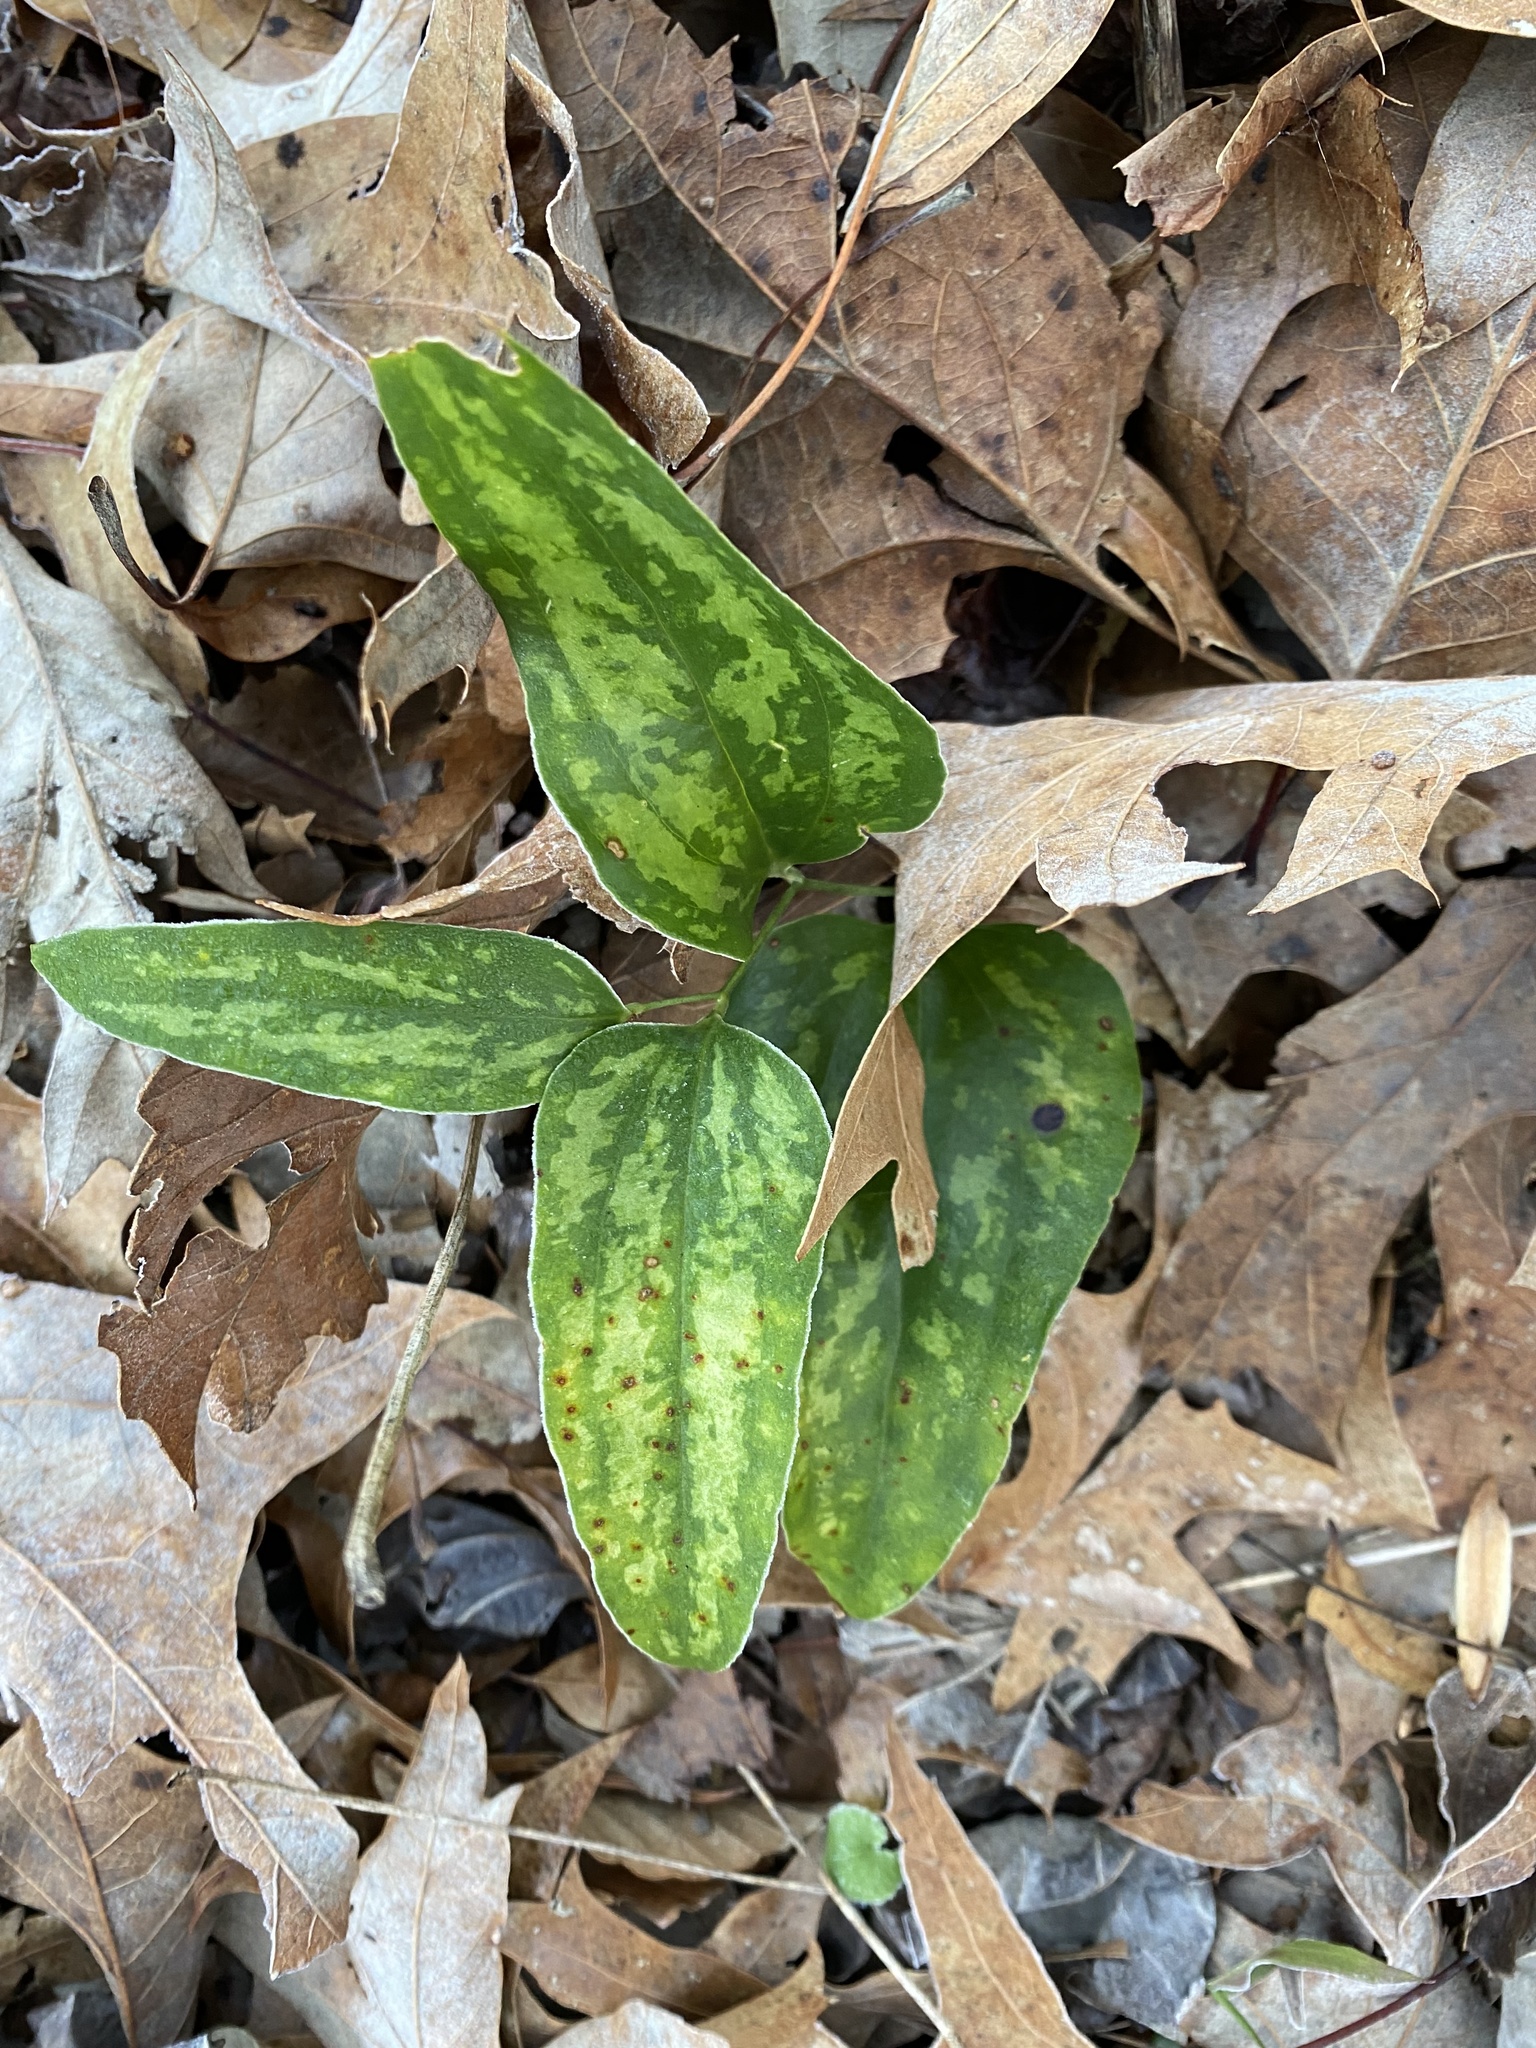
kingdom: Plantae
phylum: Tracheophyta
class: Liliopsida
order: Liliales
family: Smilacaceae
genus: Smilax
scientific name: Smilax maritima
